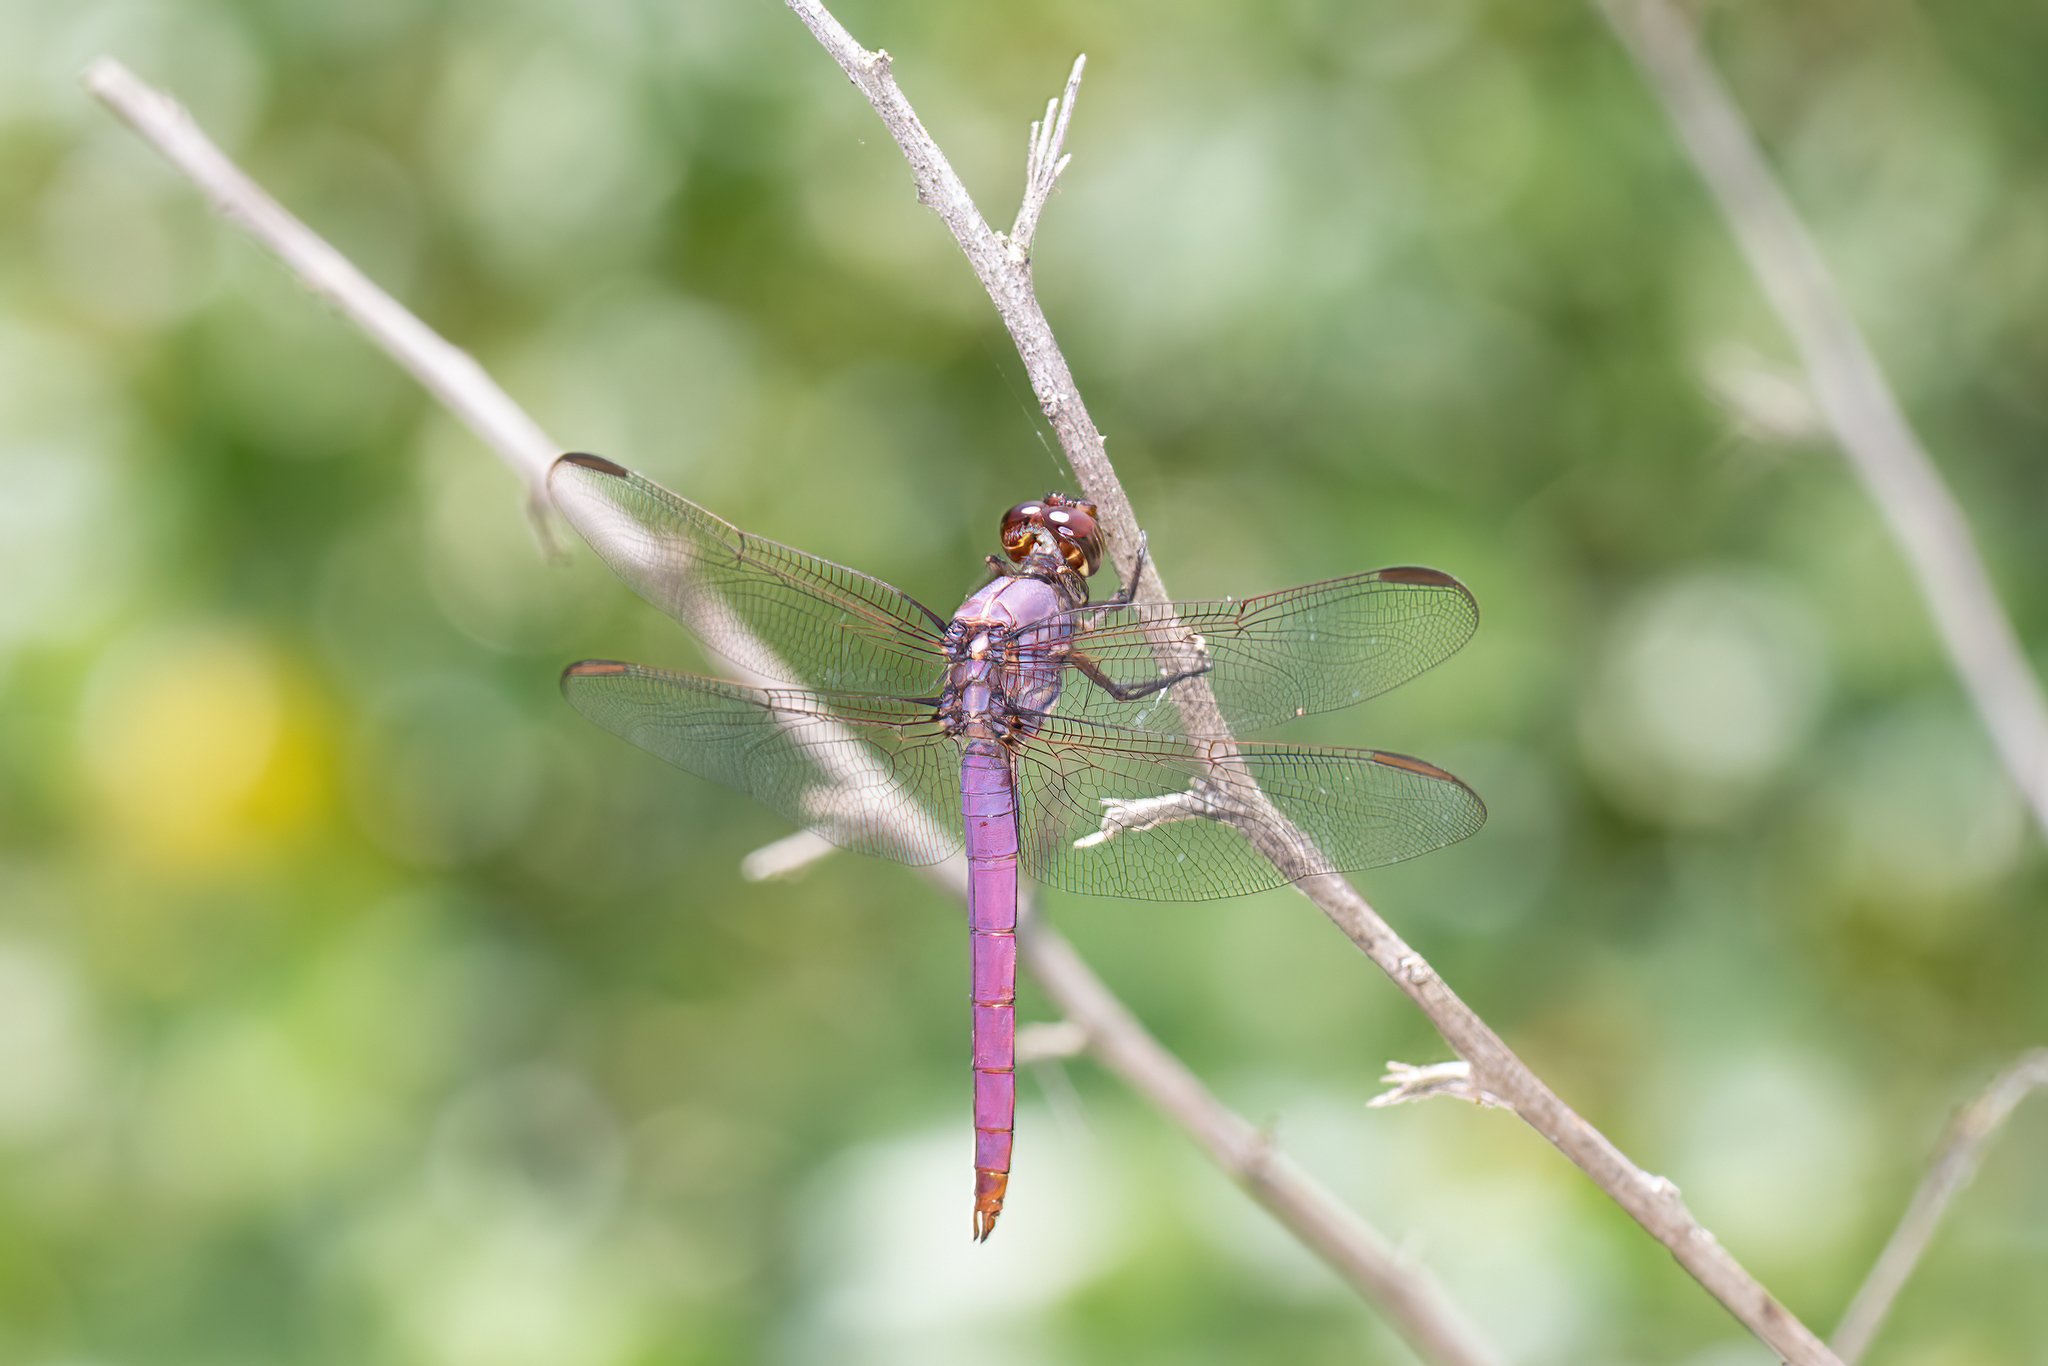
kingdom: Animalia
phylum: Arthropoda
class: Insecta
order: Odonata
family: Libellulidae
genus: Orthemis
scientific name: Orthemis ferruginea
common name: Roseate skimmer
